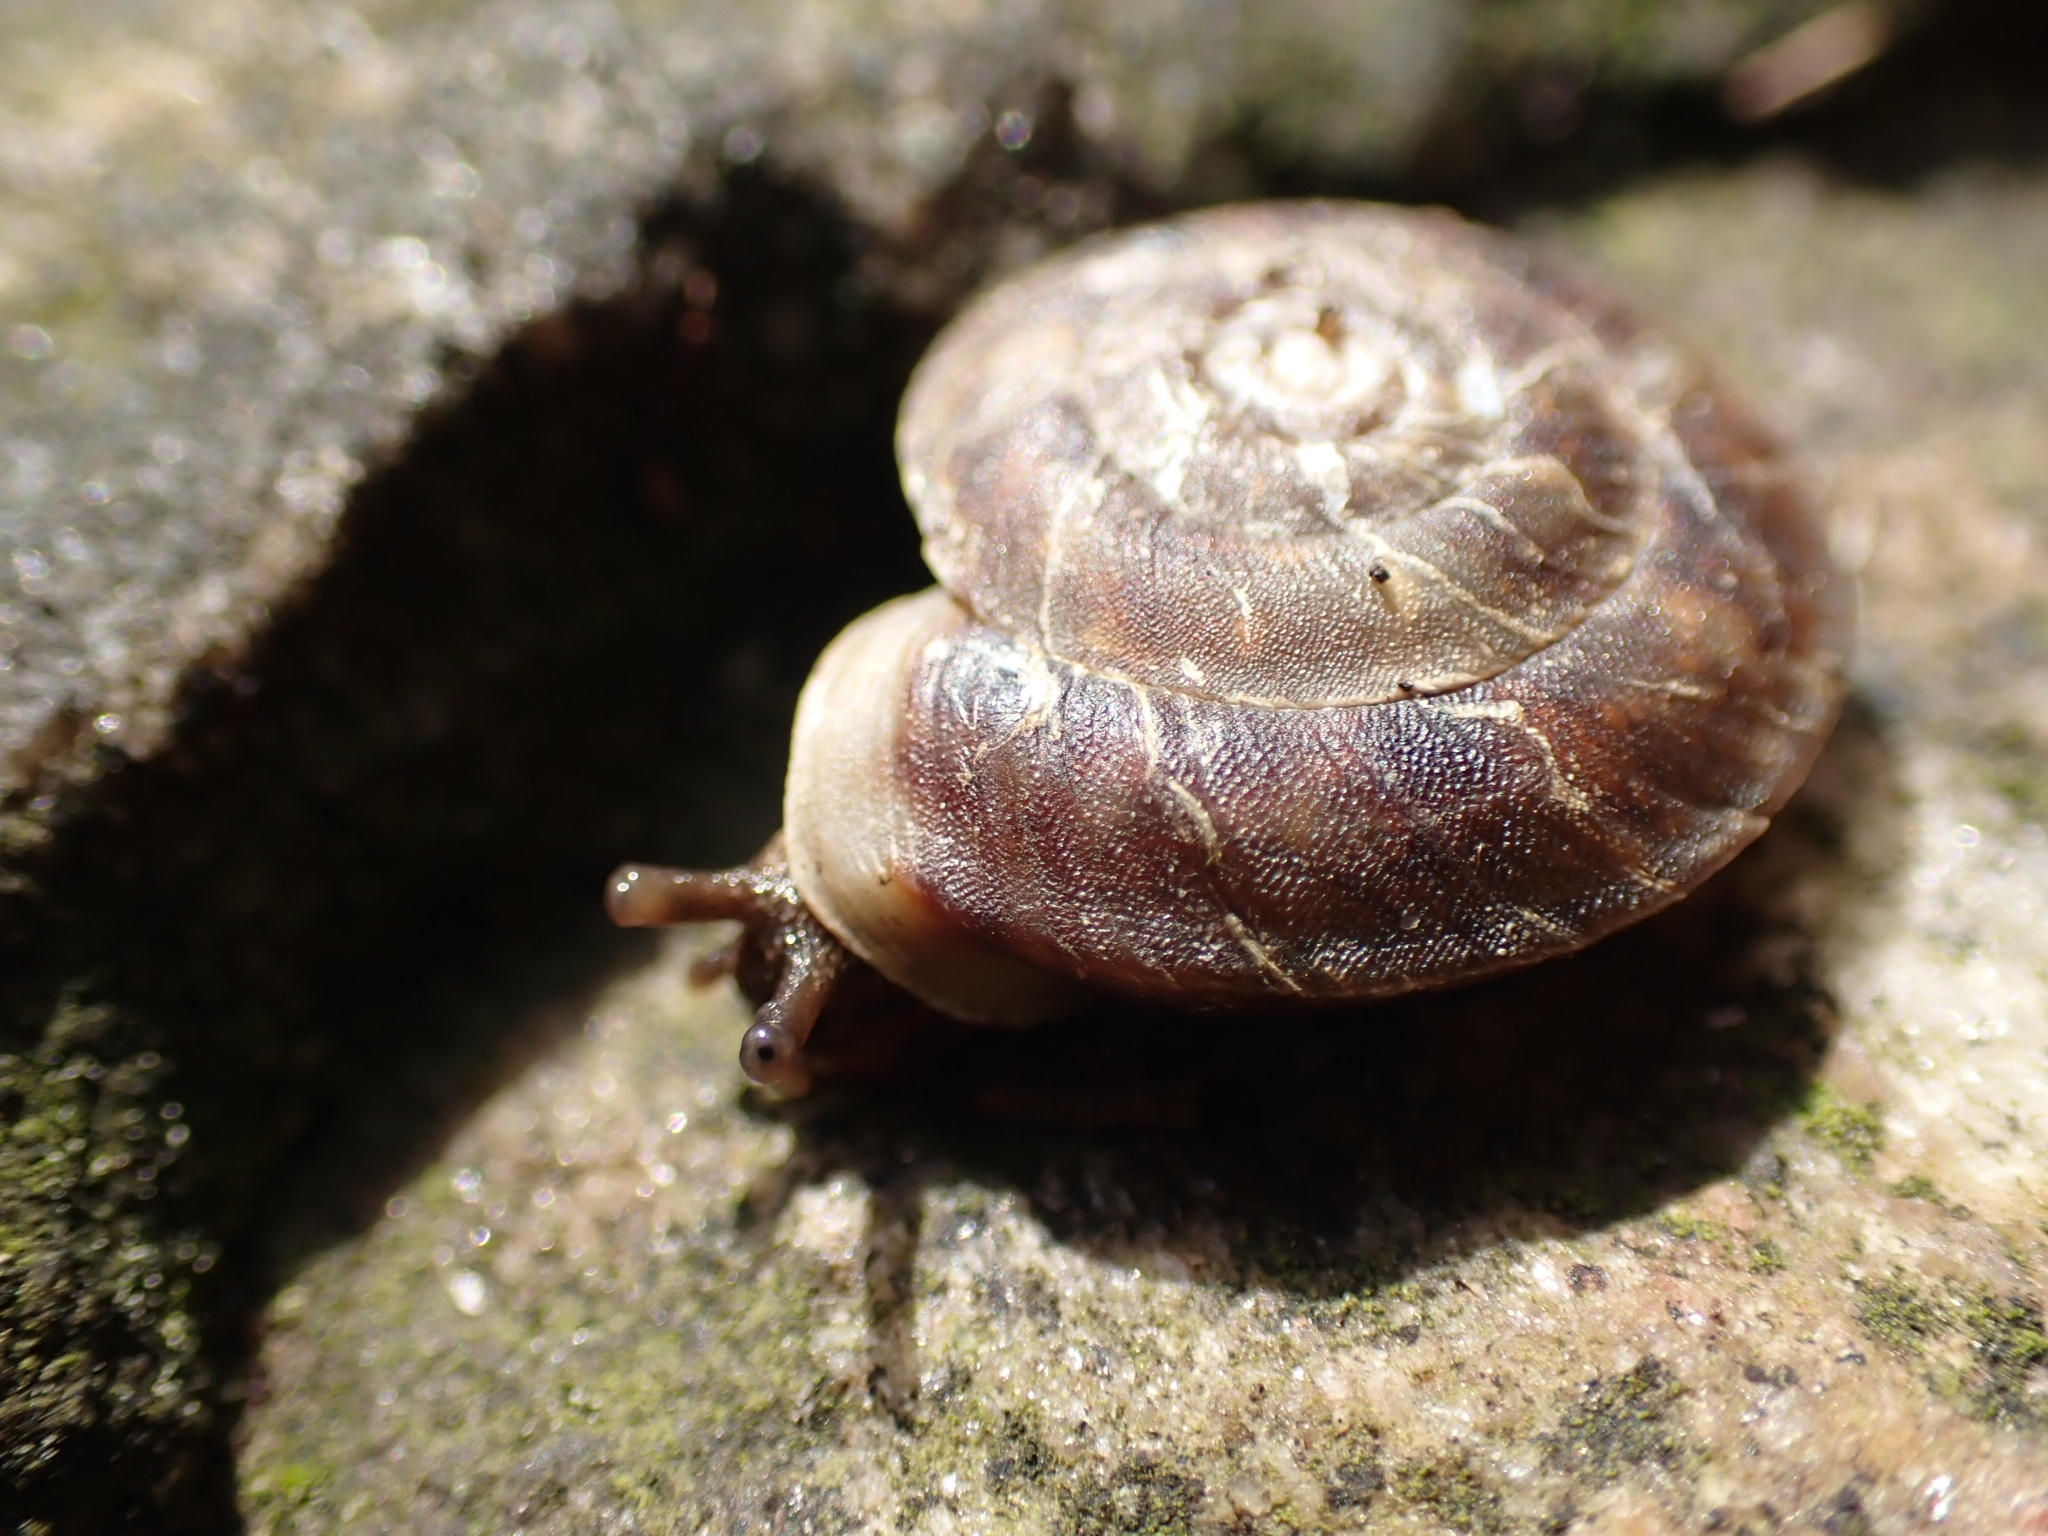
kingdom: Animalia
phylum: Mollusca
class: Gastropoda
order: Stylommatophora
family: Helicidae
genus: Helicigona
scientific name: Helicigona lapicida
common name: Lapidary snail
